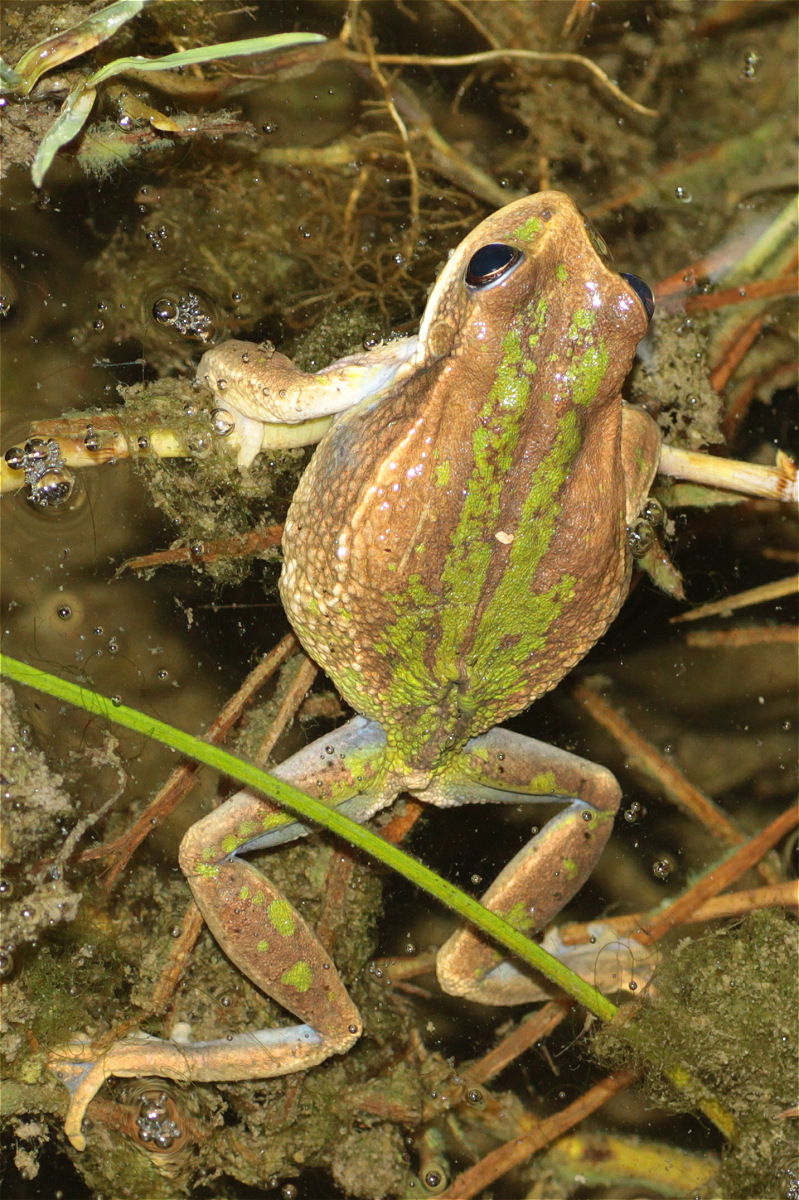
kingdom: Animalia
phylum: Chordata
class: Amphibia
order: Anura
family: Hemiphractidae
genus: Gastrotheca
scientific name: Gastrotheca cuencana
